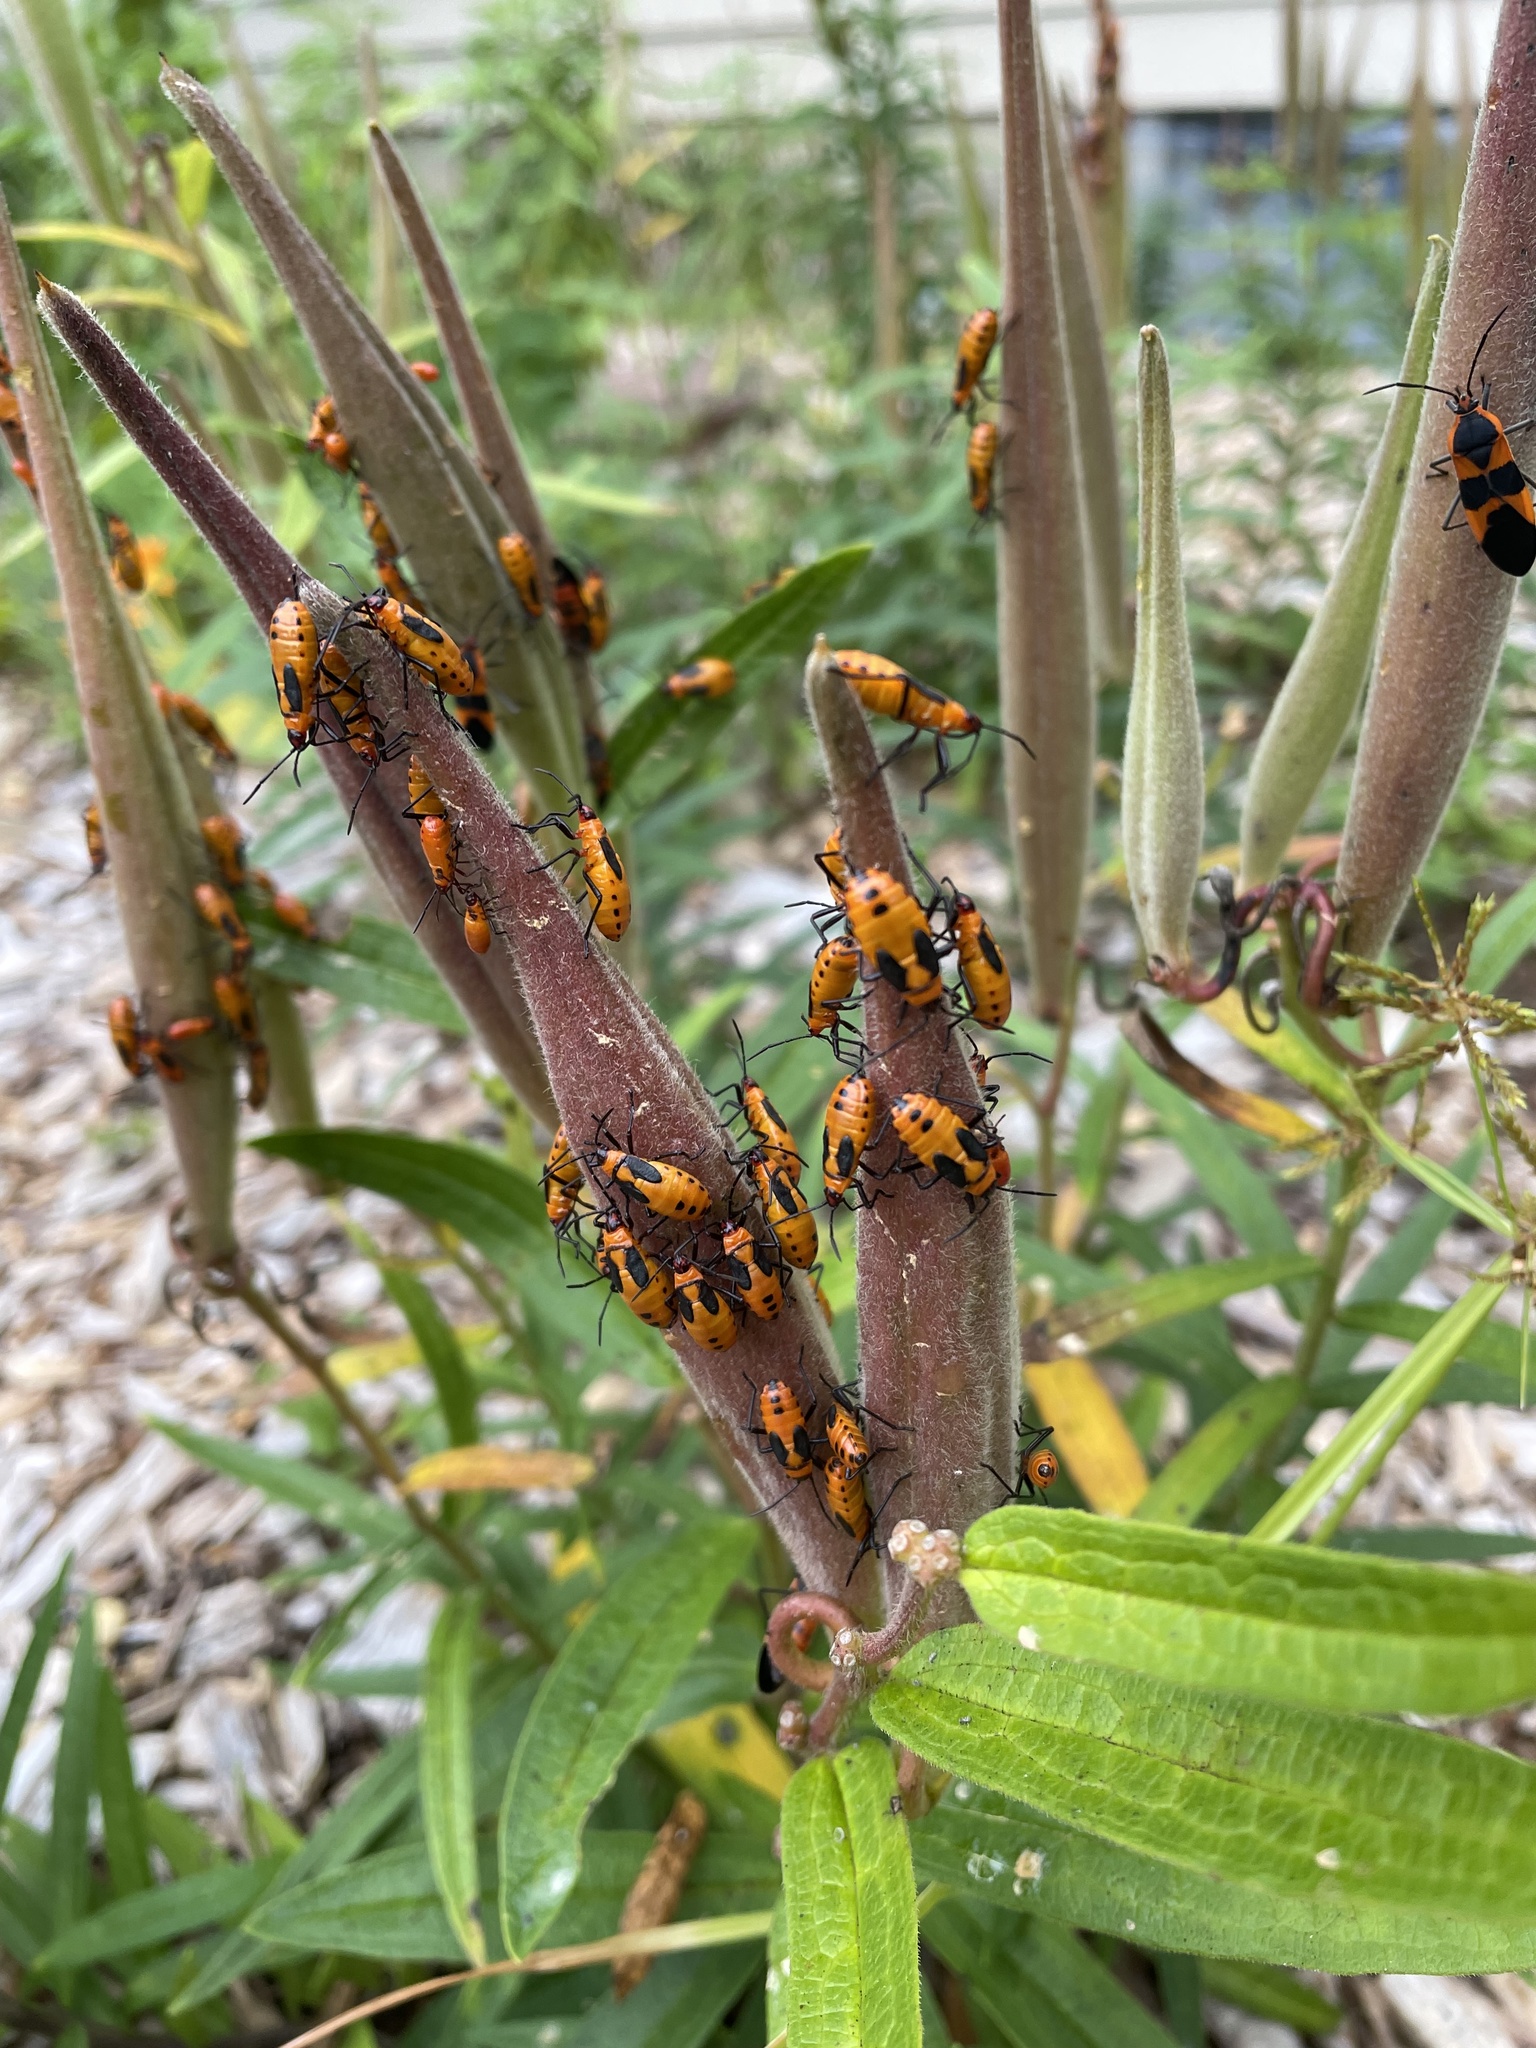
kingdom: Animalia
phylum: Arthropoda
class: Insecta
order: Hemiptera
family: Lygaeidae
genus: Oncopeltus
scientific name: Oncopeltus fasciatus
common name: Large milkweed bug
